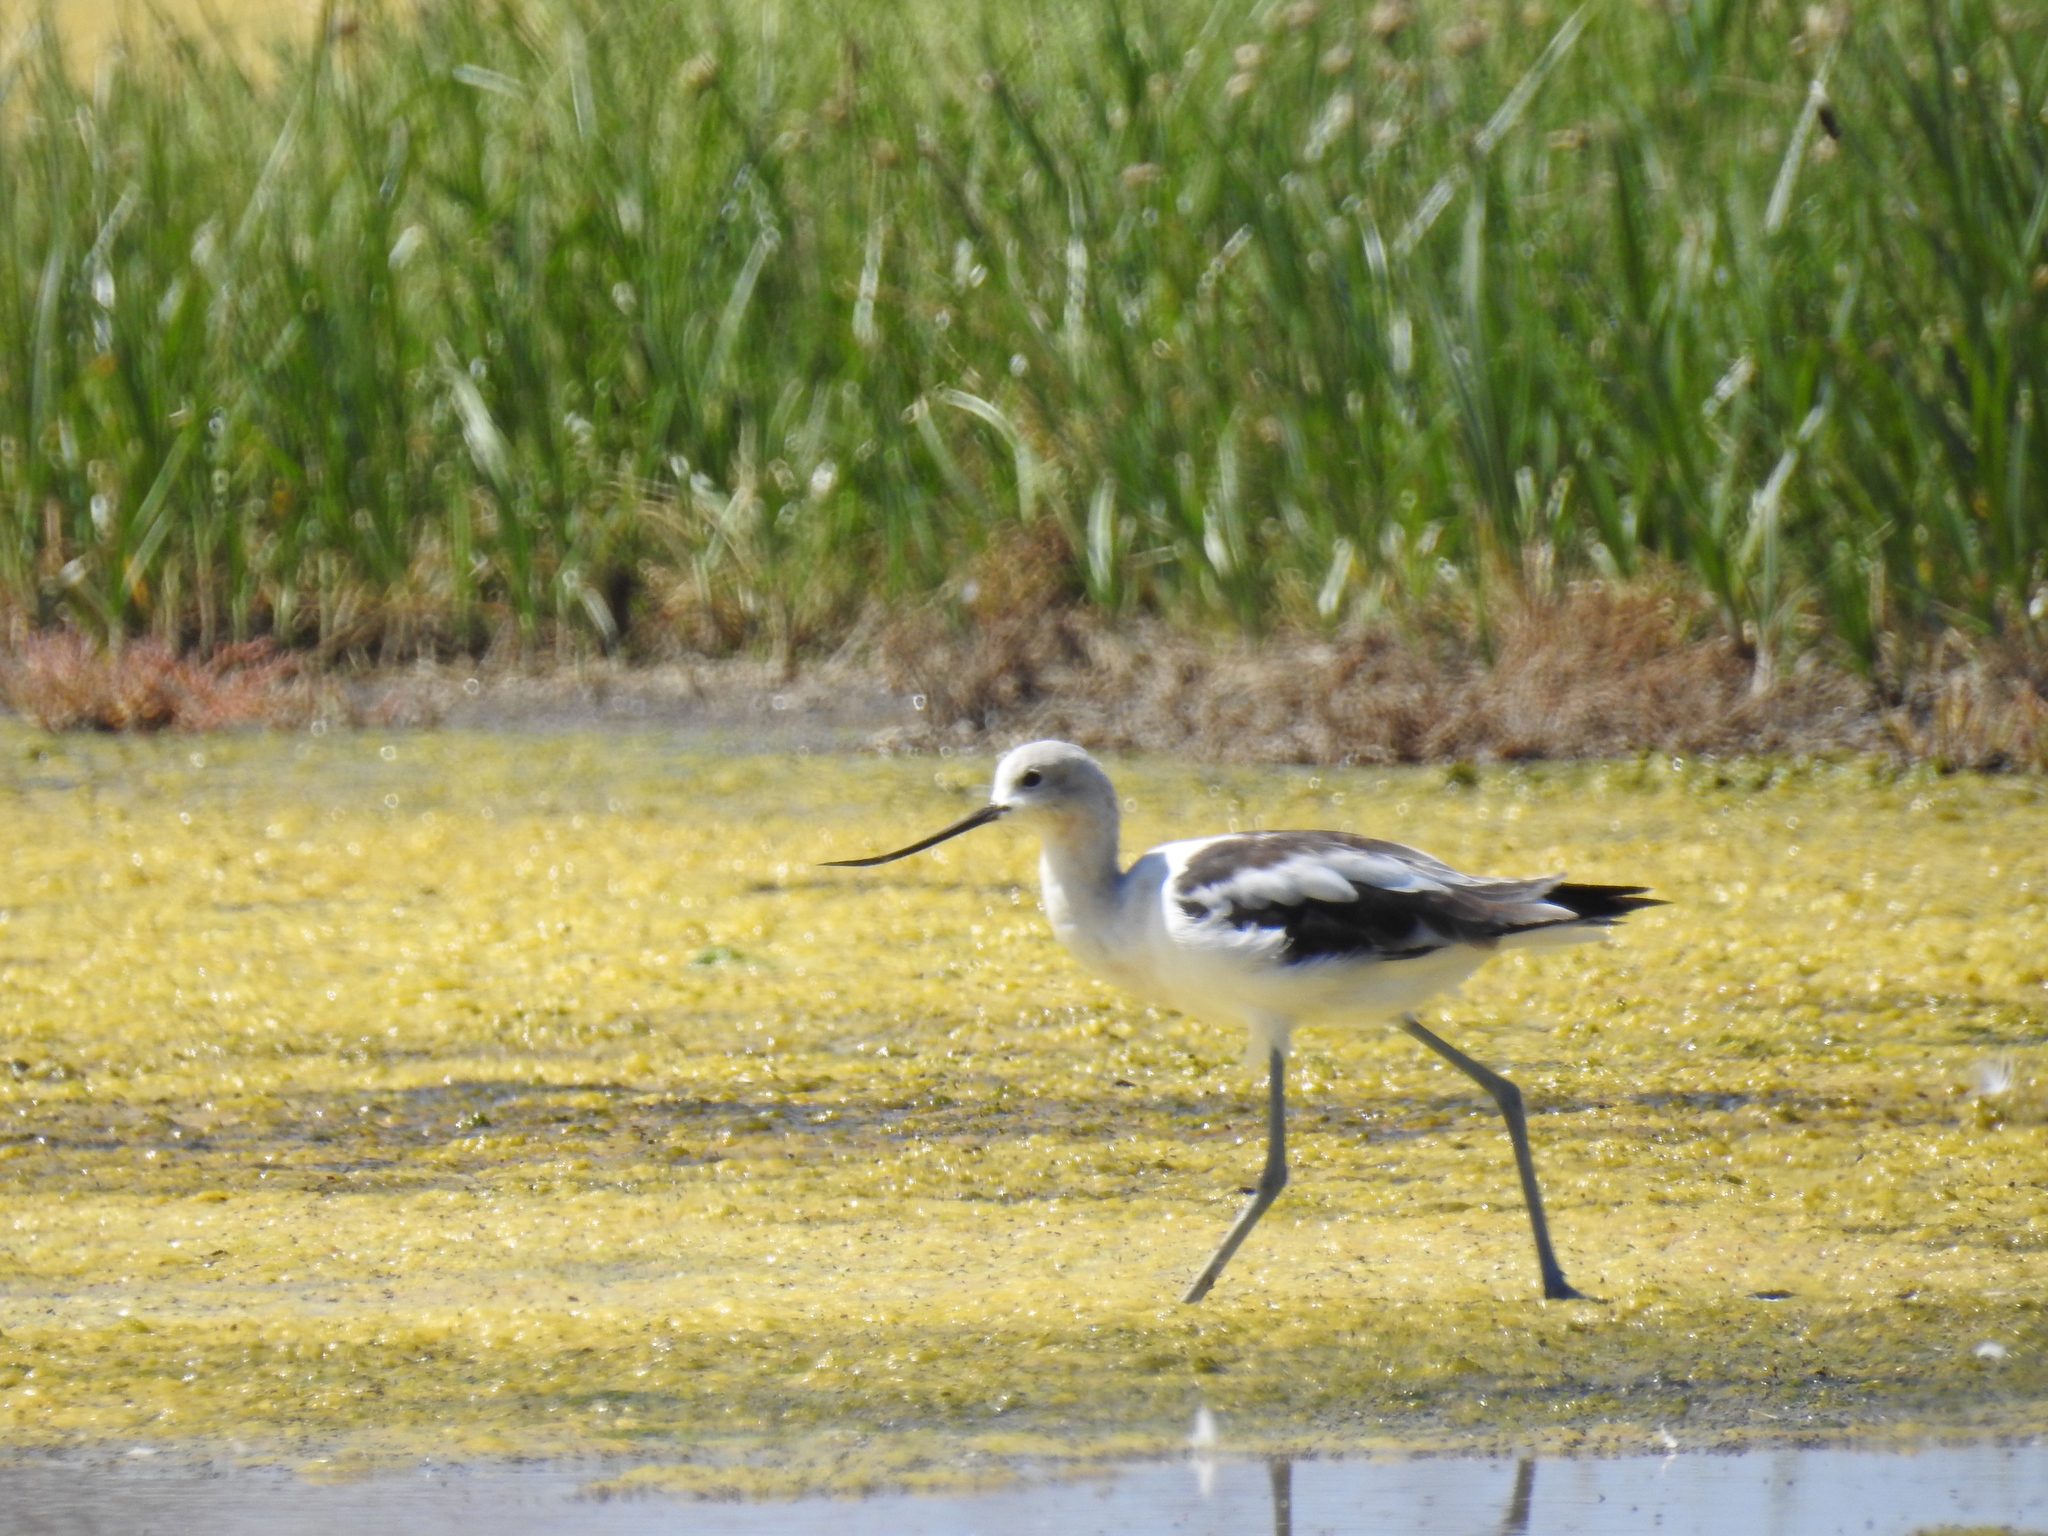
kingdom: Animalia
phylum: Chordata
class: Aves
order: Charadriiformes
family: Recurvirostridae
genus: Recurvirostra
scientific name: Recurvirostra americana
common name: American avocet
